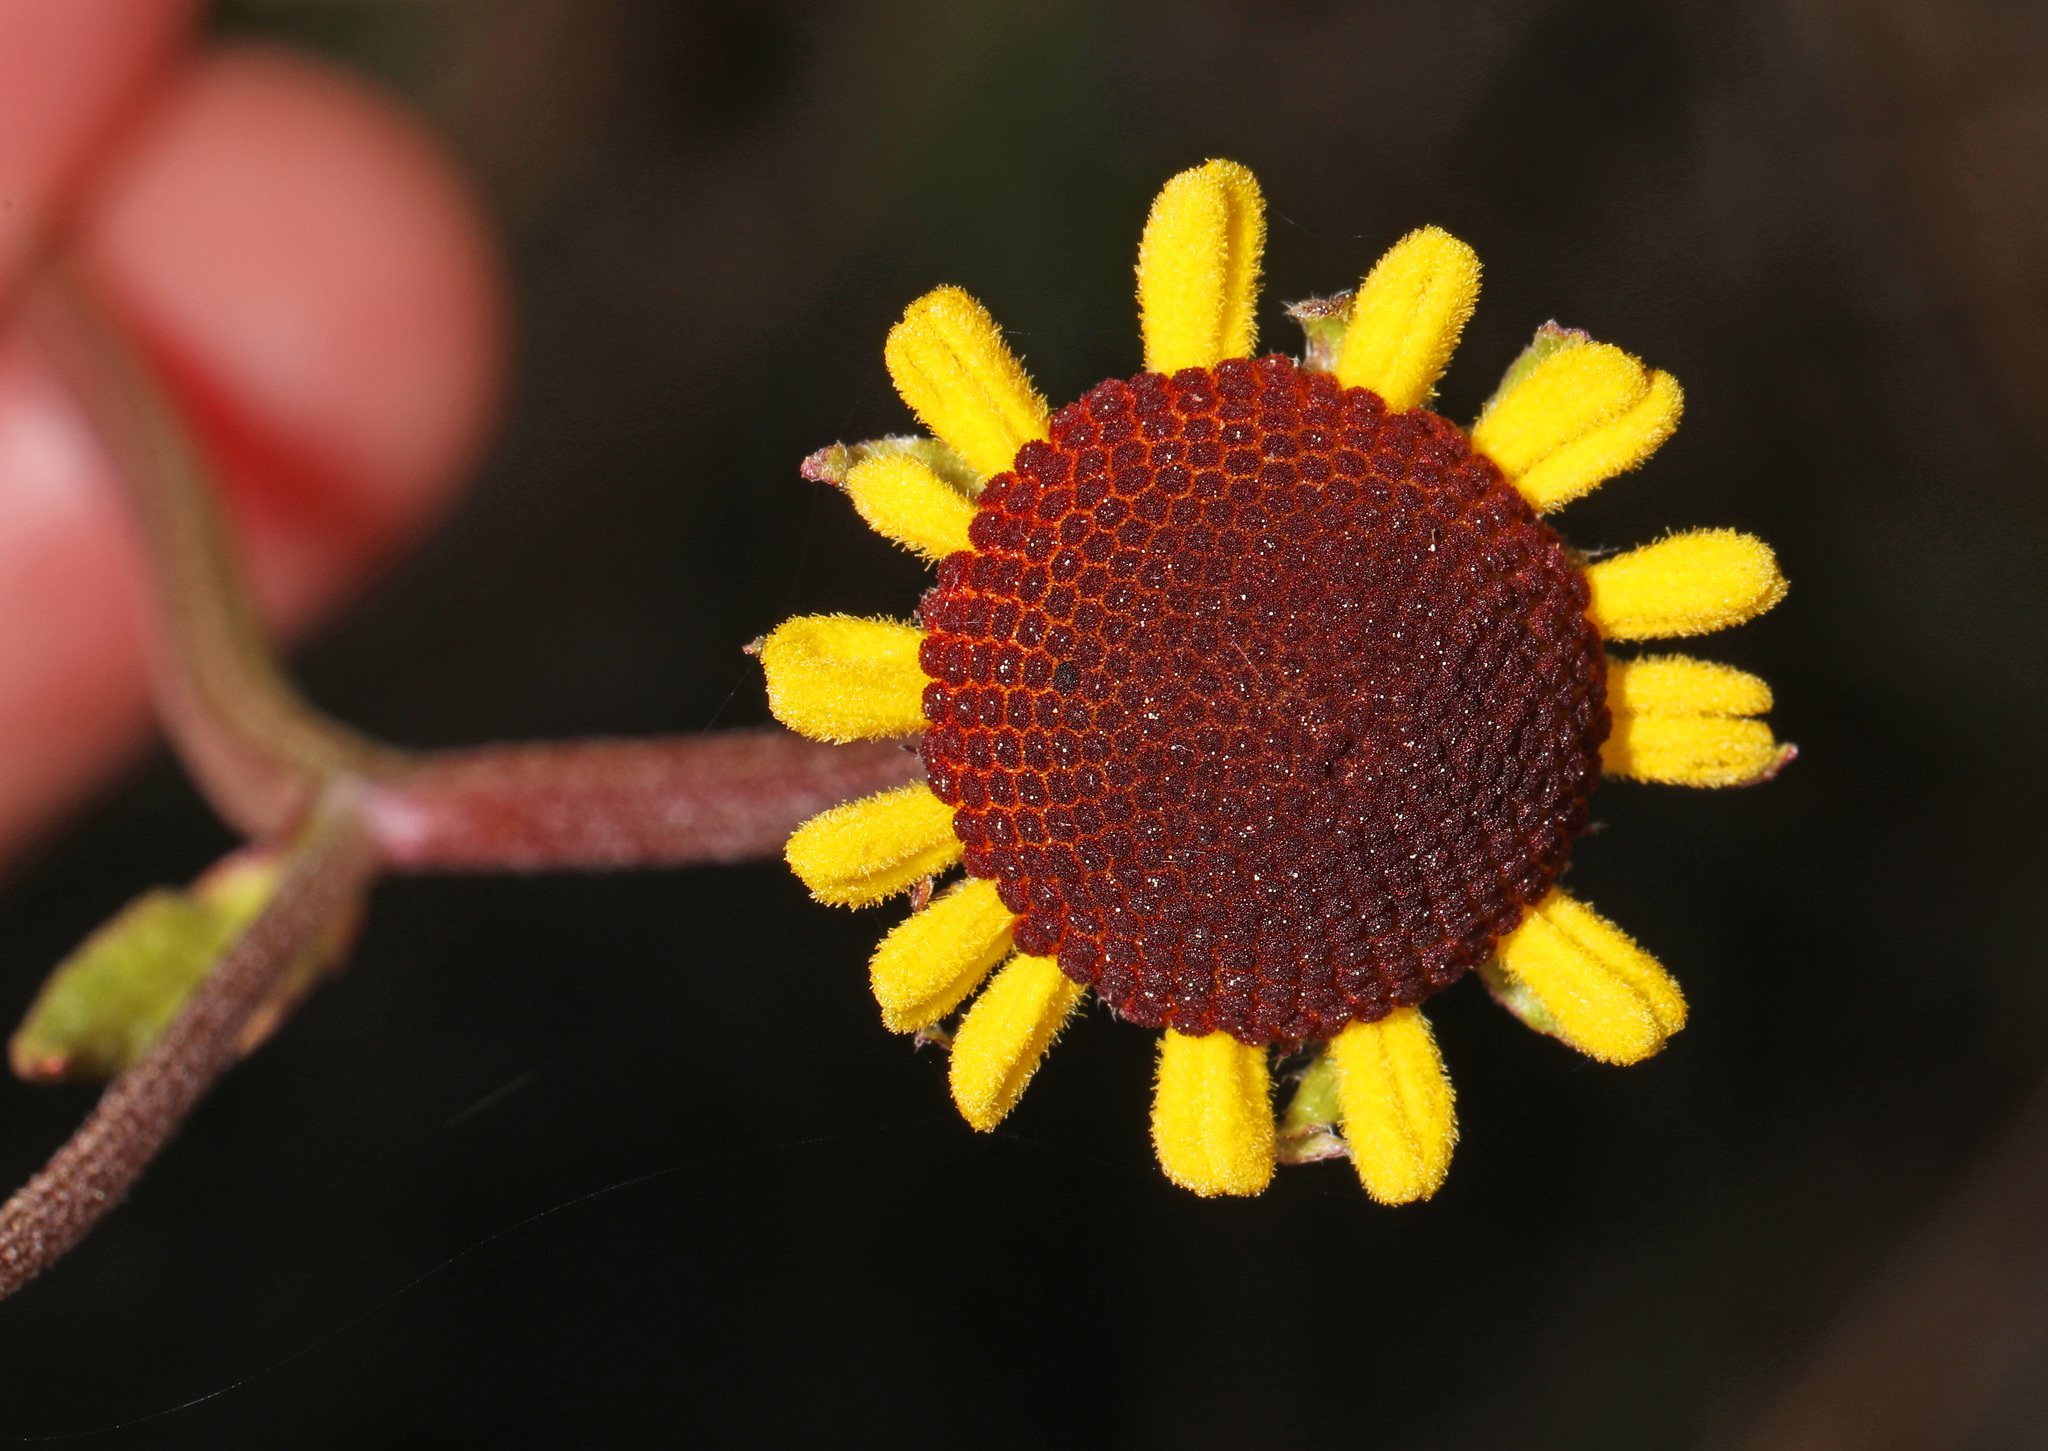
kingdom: Plantae
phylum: Tracheophyta
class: Magnoliopsida
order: Asterales
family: Asteraceae
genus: Helenium
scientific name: Helenium brevifolium
